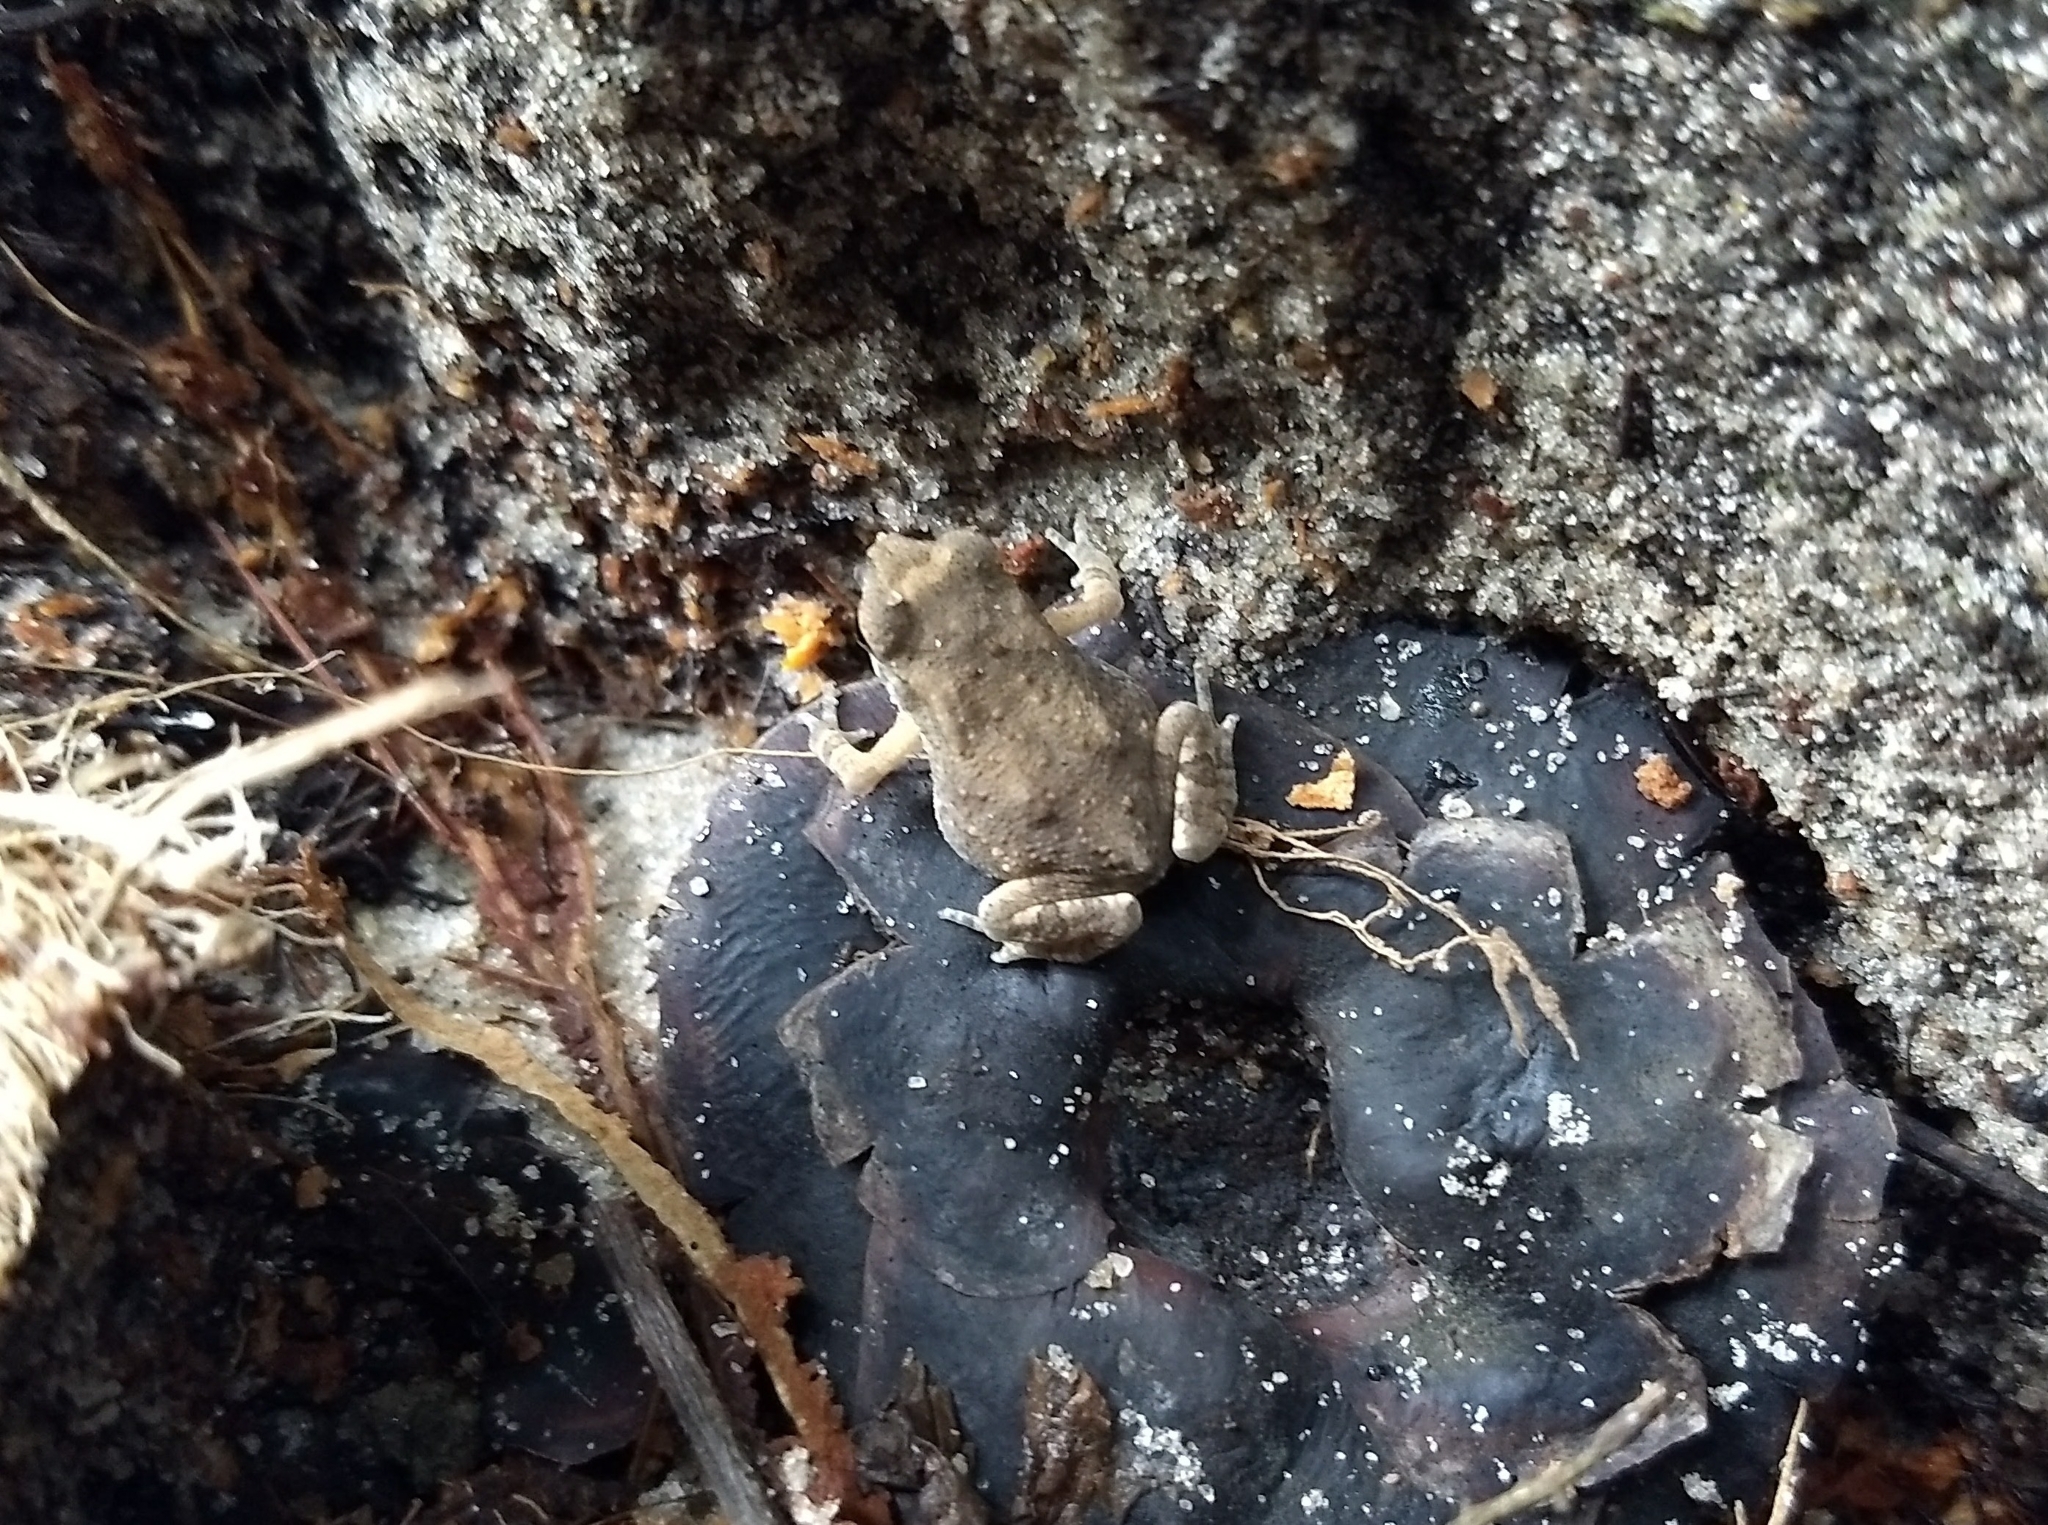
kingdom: Animalia
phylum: Chordata
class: Amphibia
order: Anura
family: Bufonidae
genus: Duttaphrynus
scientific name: Duttaphrynus melanostictus
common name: Common sunda toad
